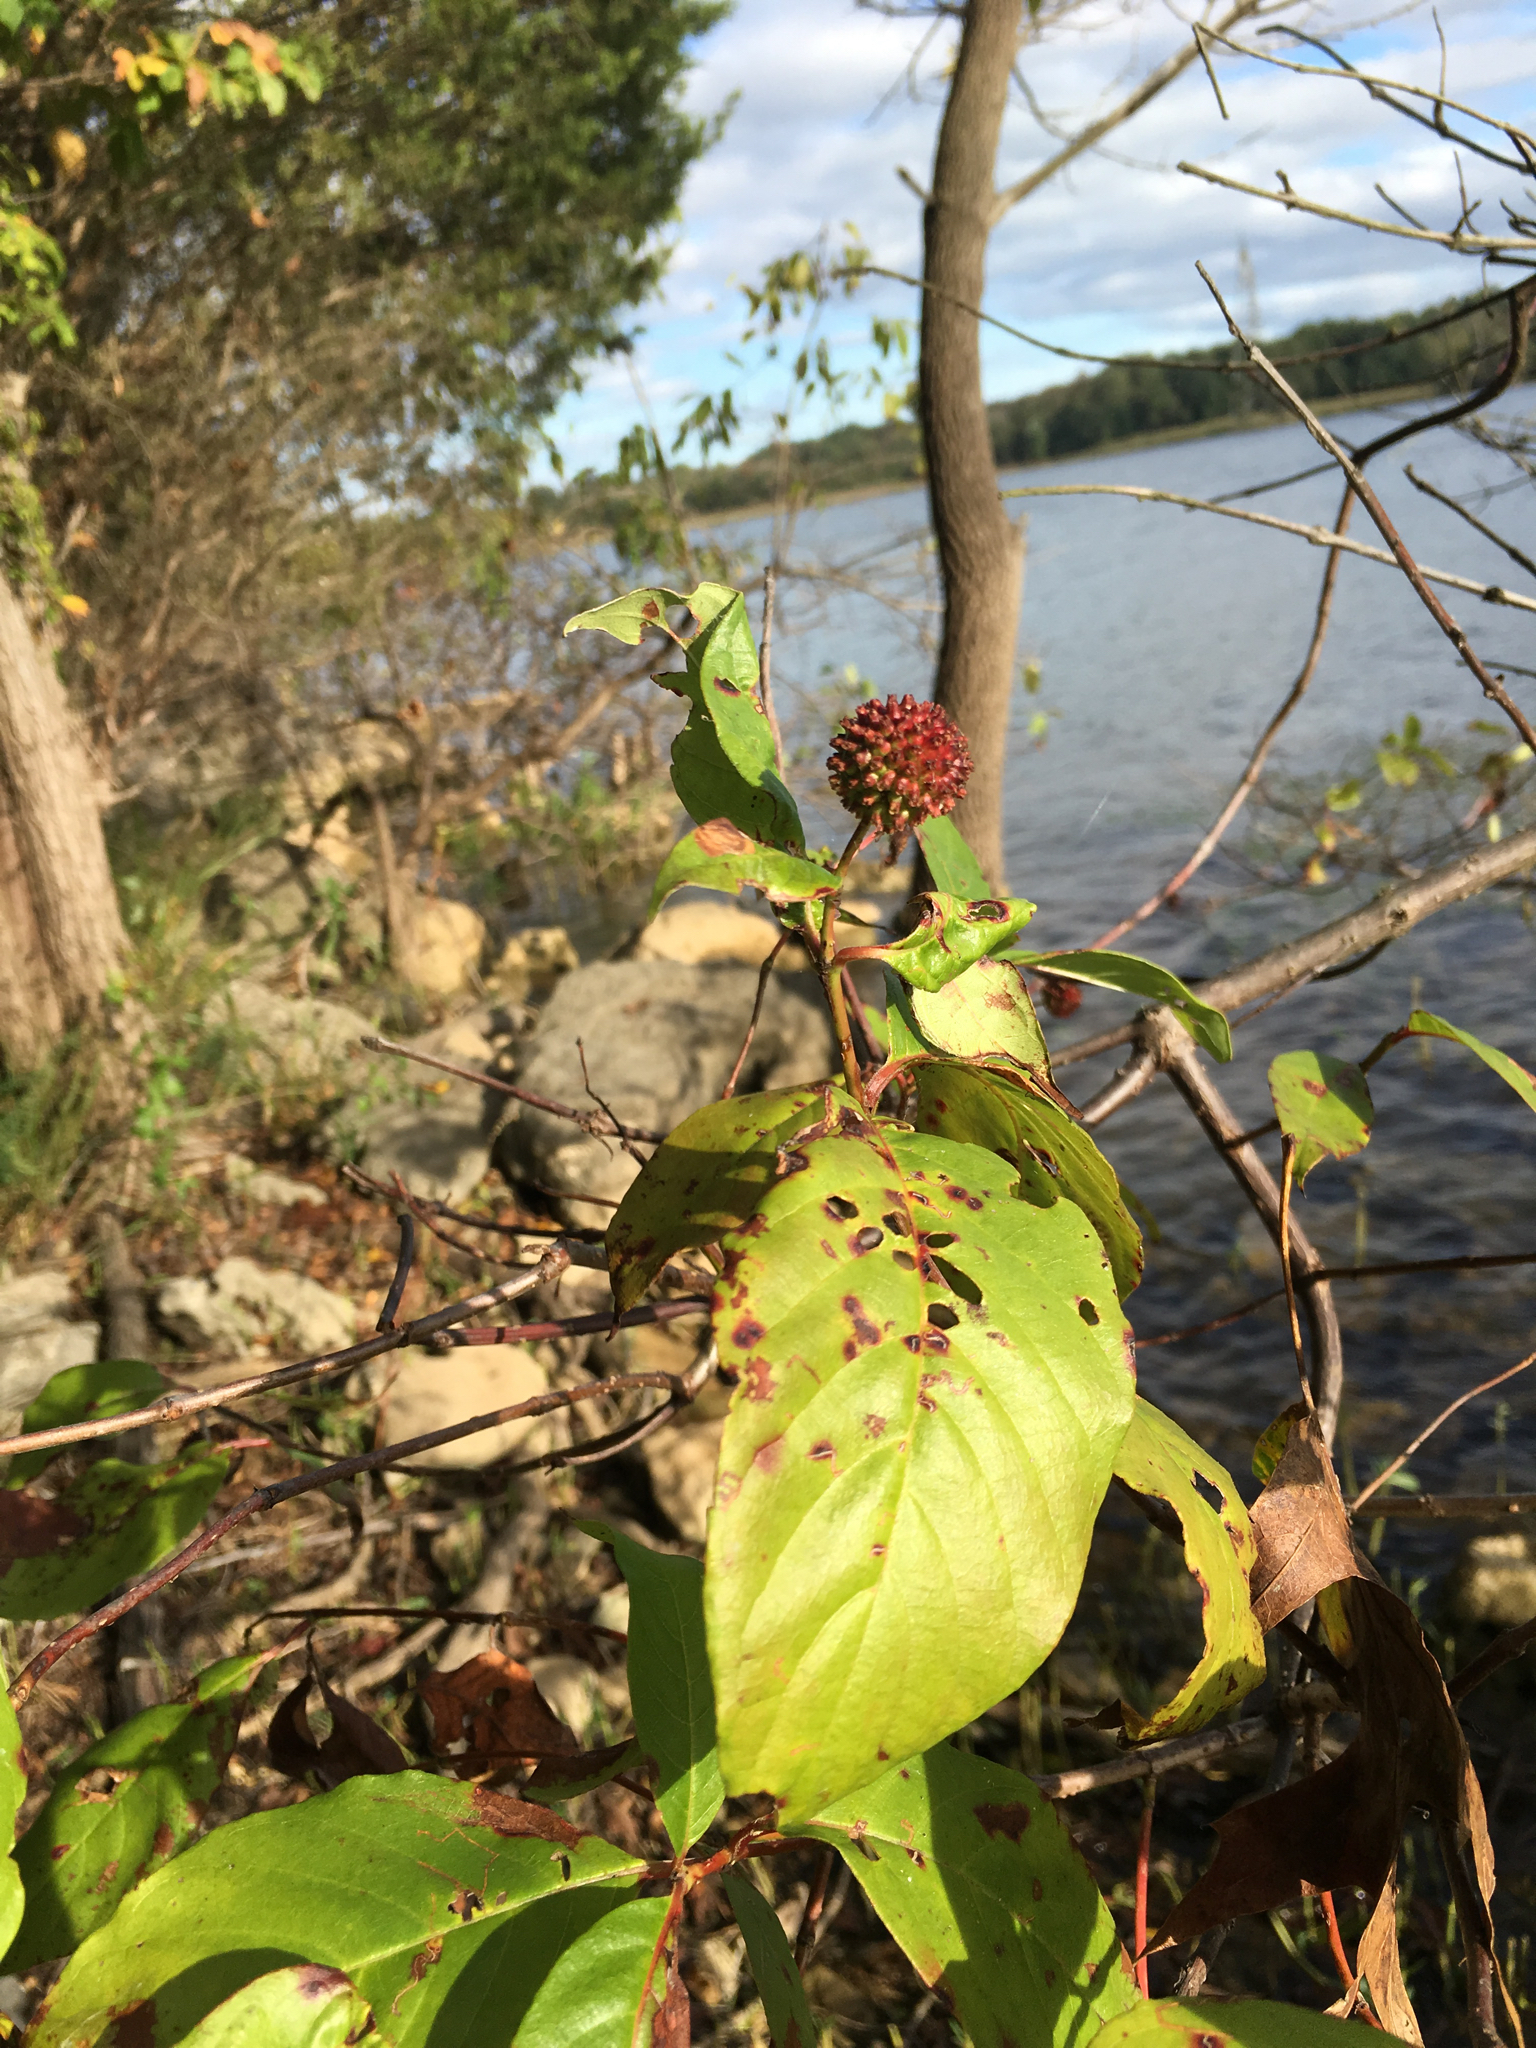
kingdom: Plantae
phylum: Tracheophyta
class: Magnoliopsida
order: Gentianales
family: Rubiaceae
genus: Cephalanthus
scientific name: Cephalanthus occidentalis
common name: Button-willow
